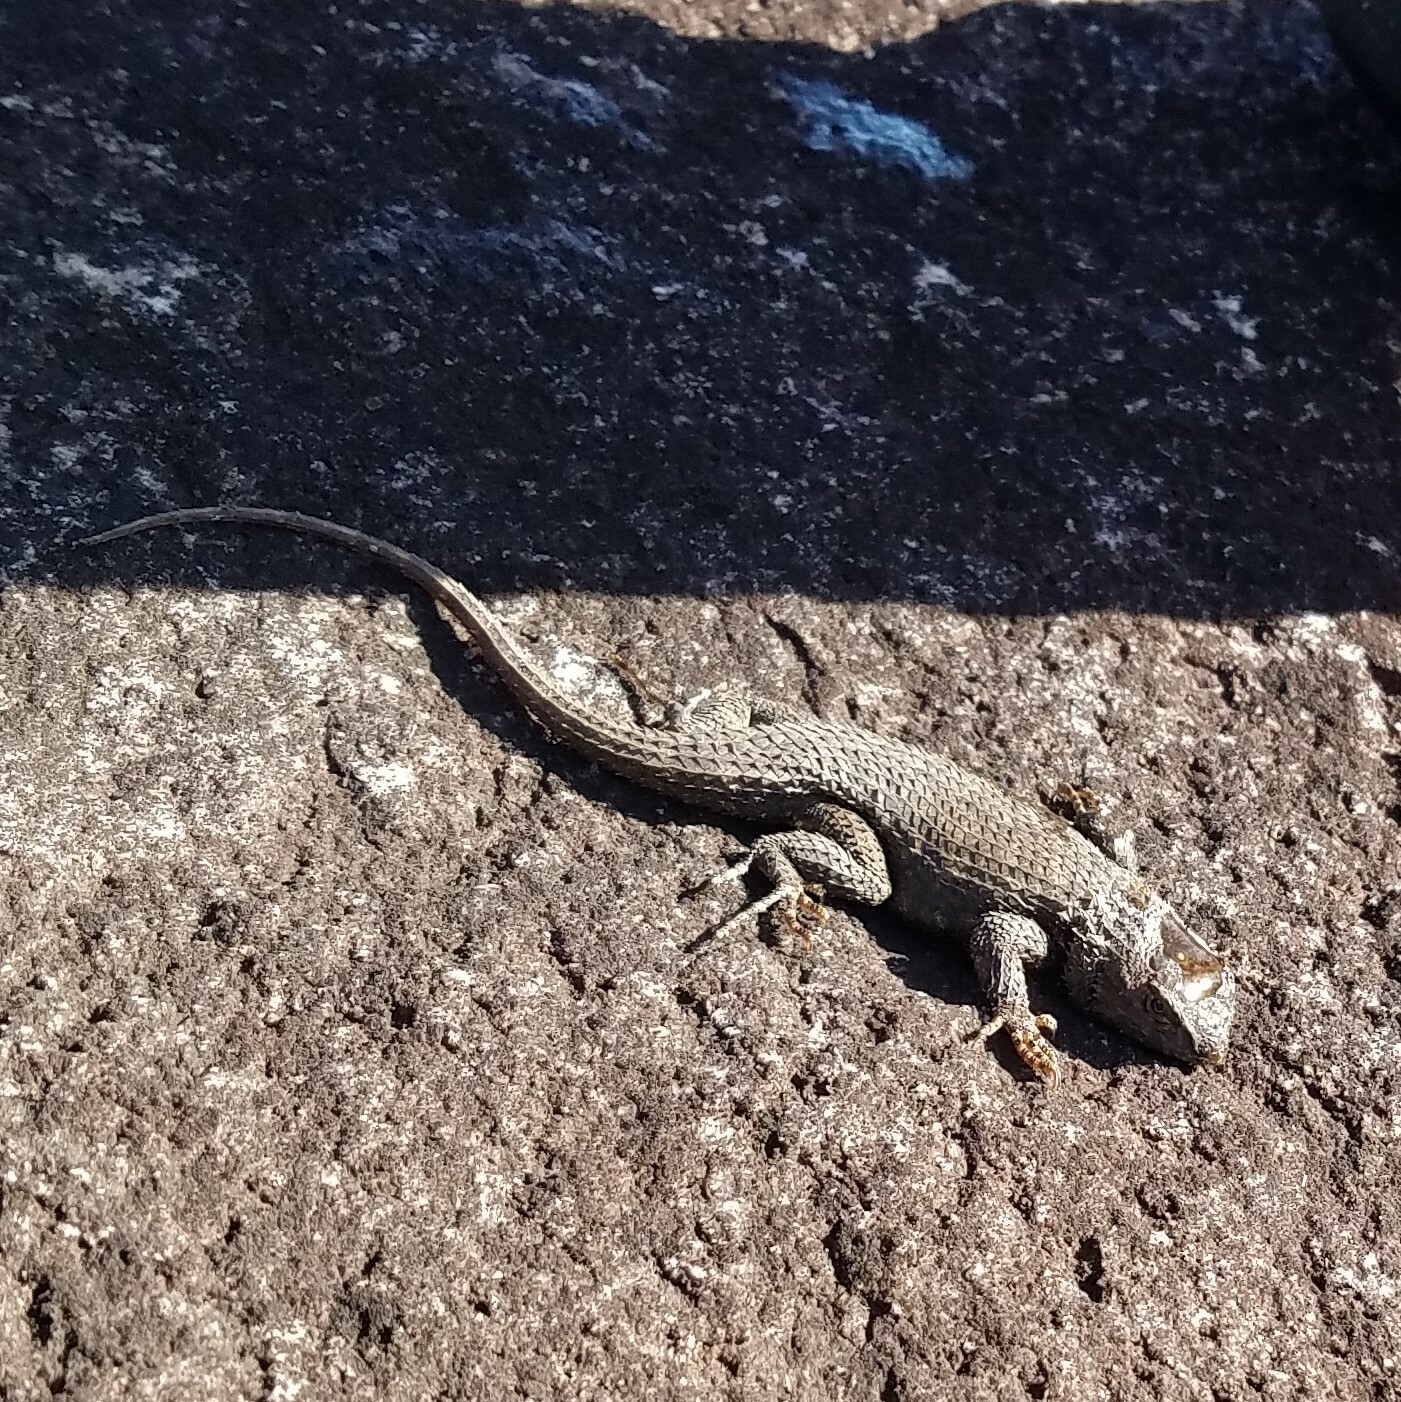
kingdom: Animalia
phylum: Chordata
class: Squamata
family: Phrynosomatidae
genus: Sceloporus
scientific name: Sceloporus undulatus
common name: Eastern fence lizard
